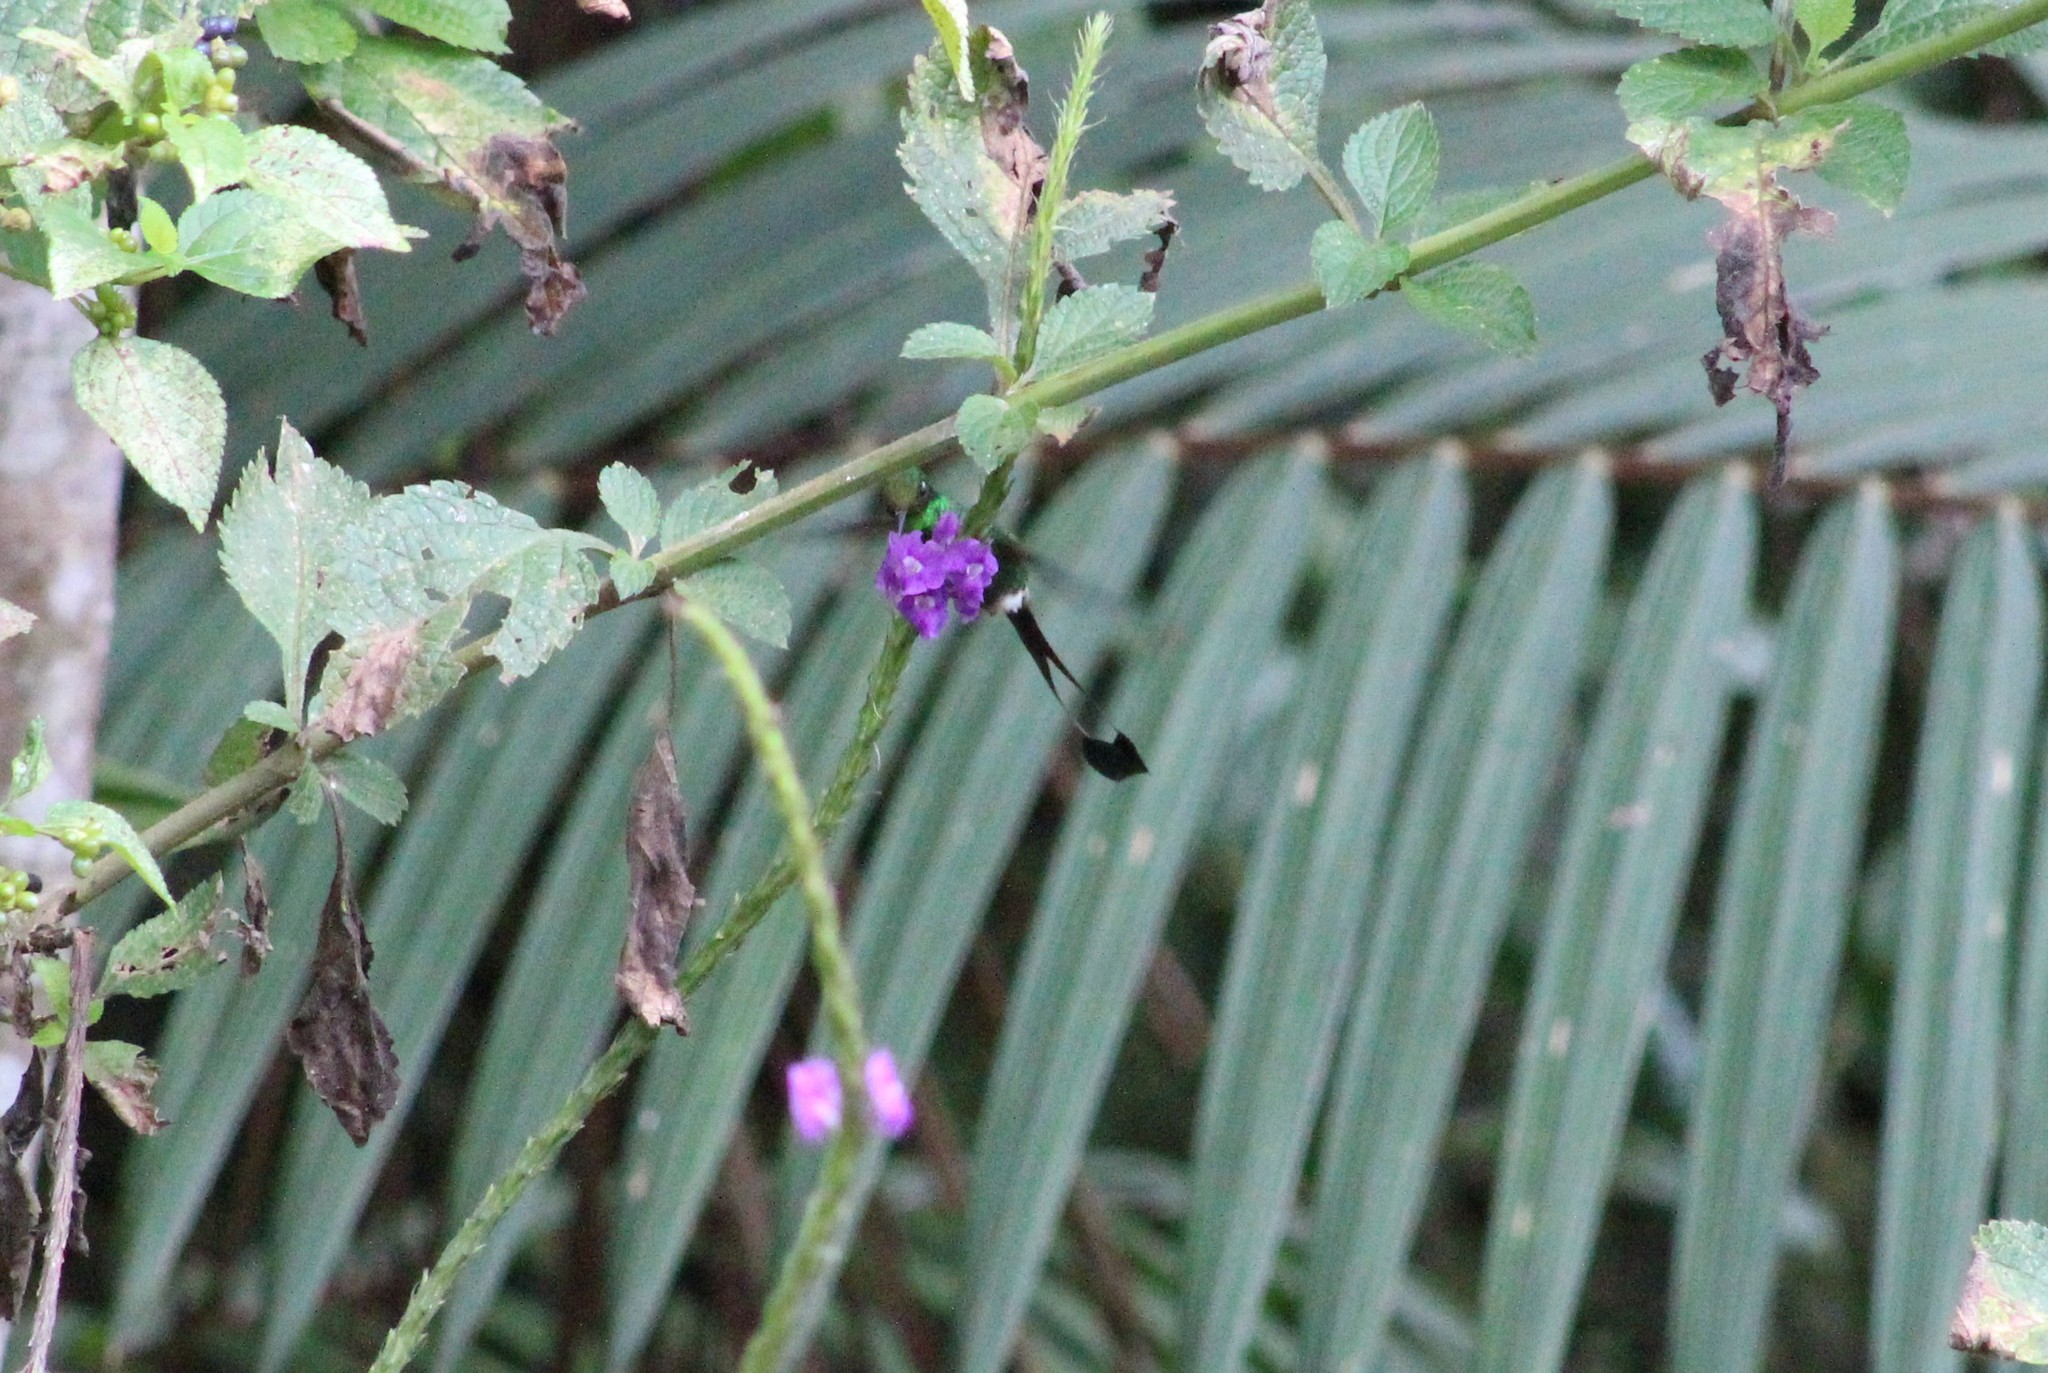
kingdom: Animalia
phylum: Chordata
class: Aves
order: Apodiformes
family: Trochilidae
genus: Ocreatus
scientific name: Ocreatus underwoodii
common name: Booted racket-tail
